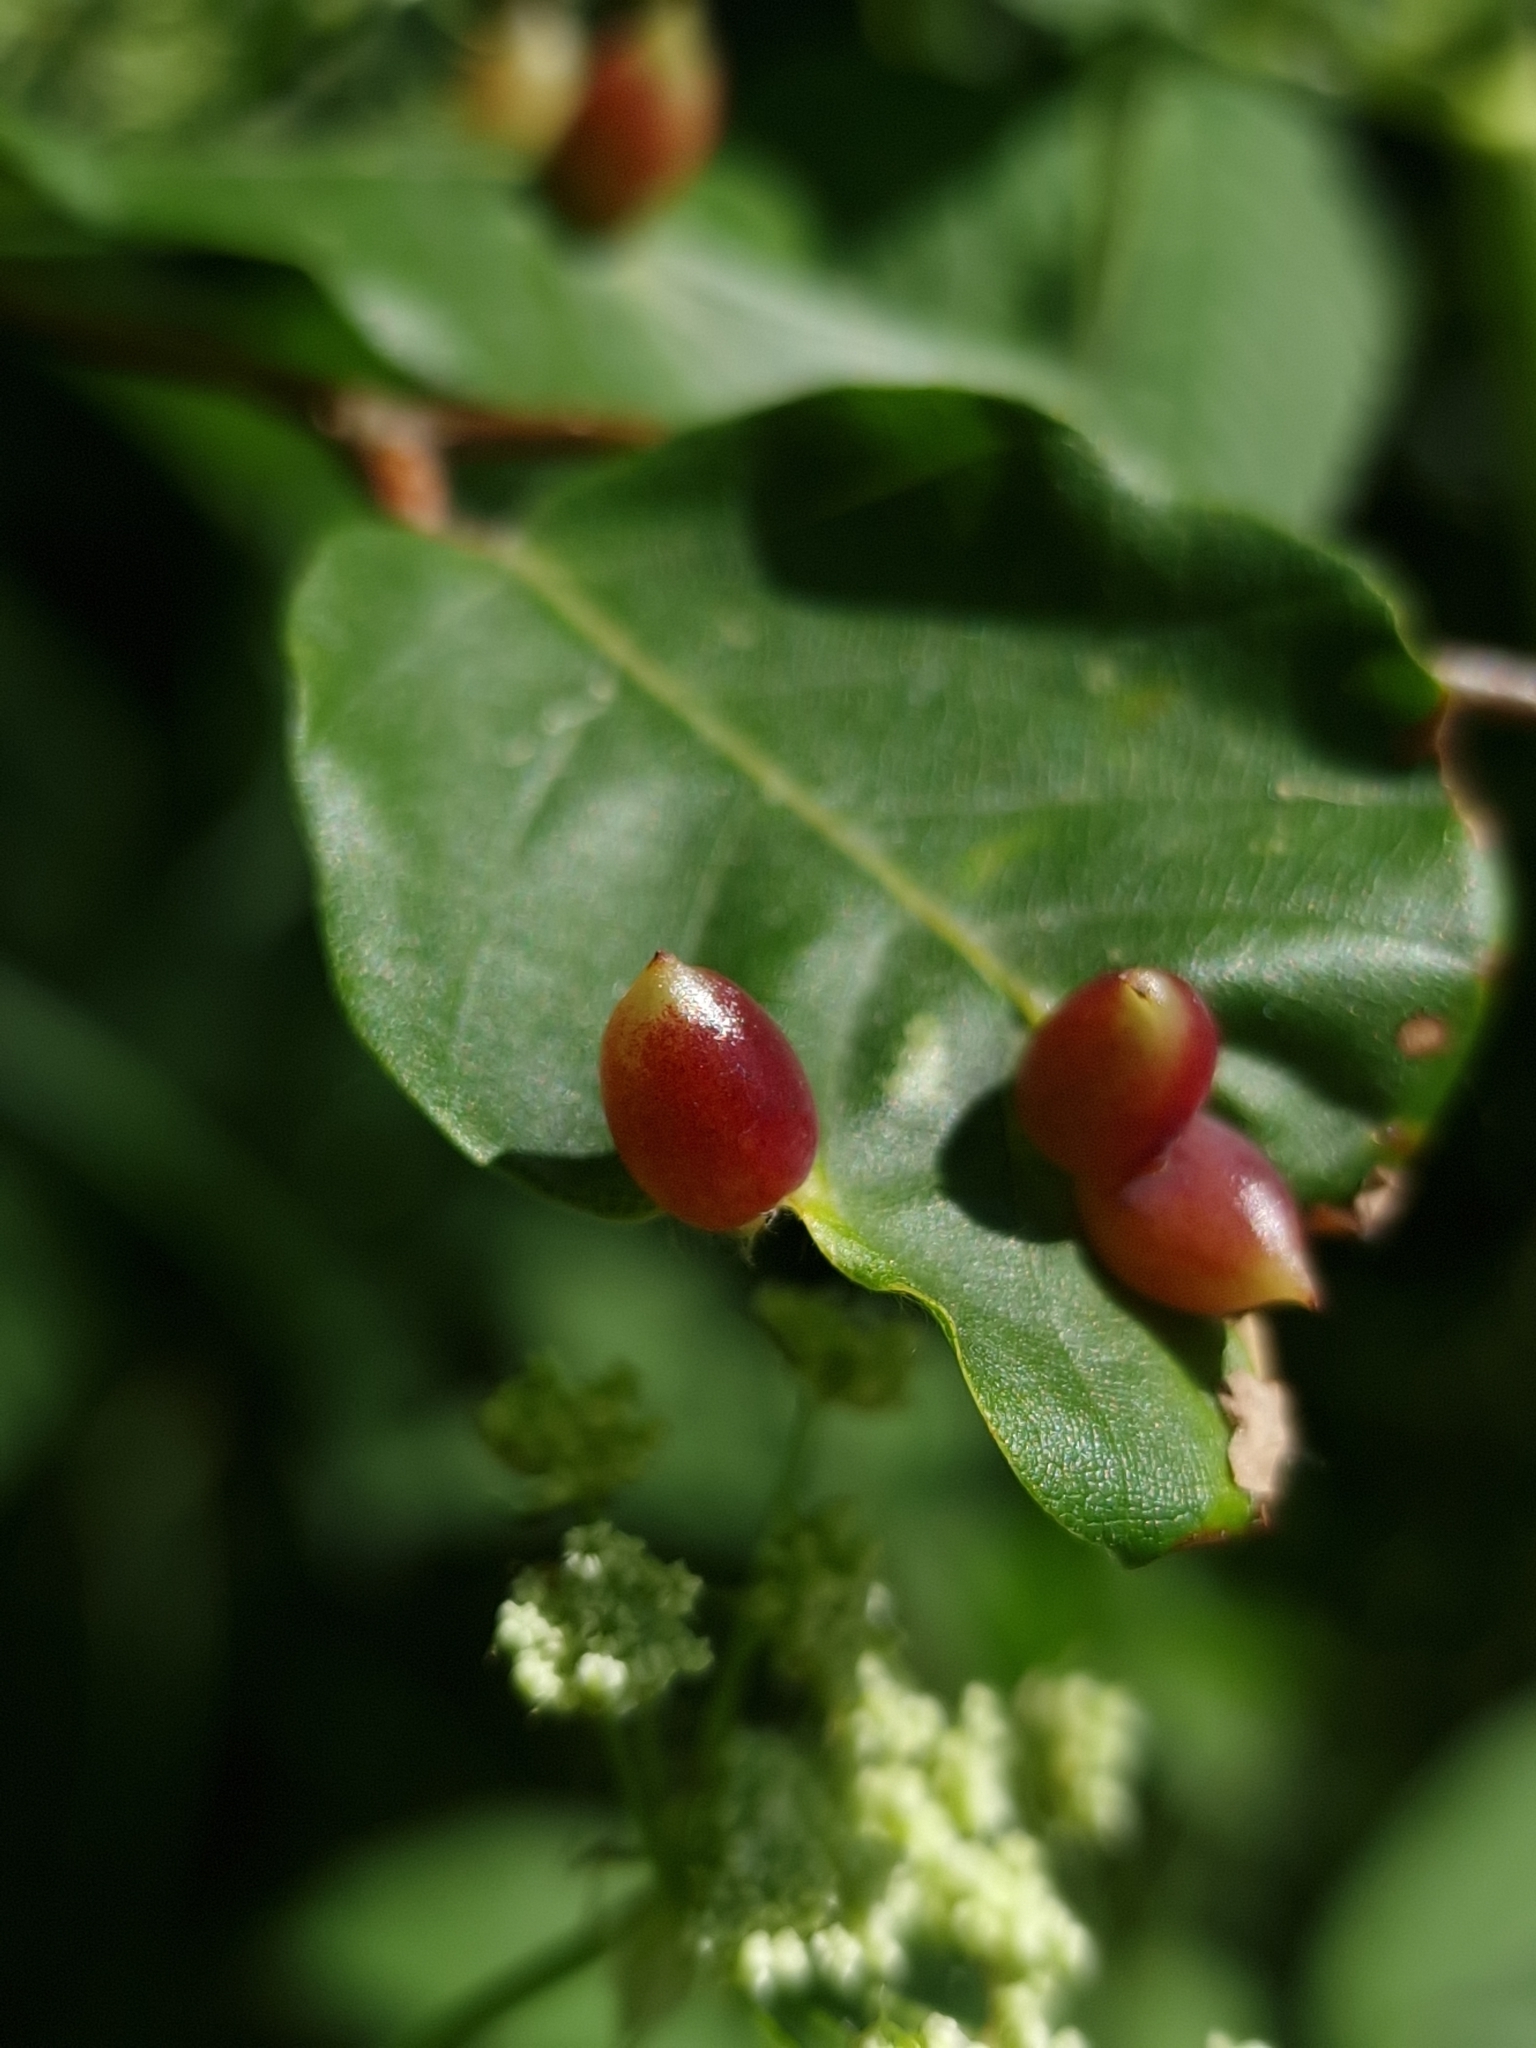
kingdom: Animalia
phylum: Arthropoda
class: Insecta
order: Diptera
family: Cecidomyiidae
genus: Mikiola
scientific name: Mikiola fagi
